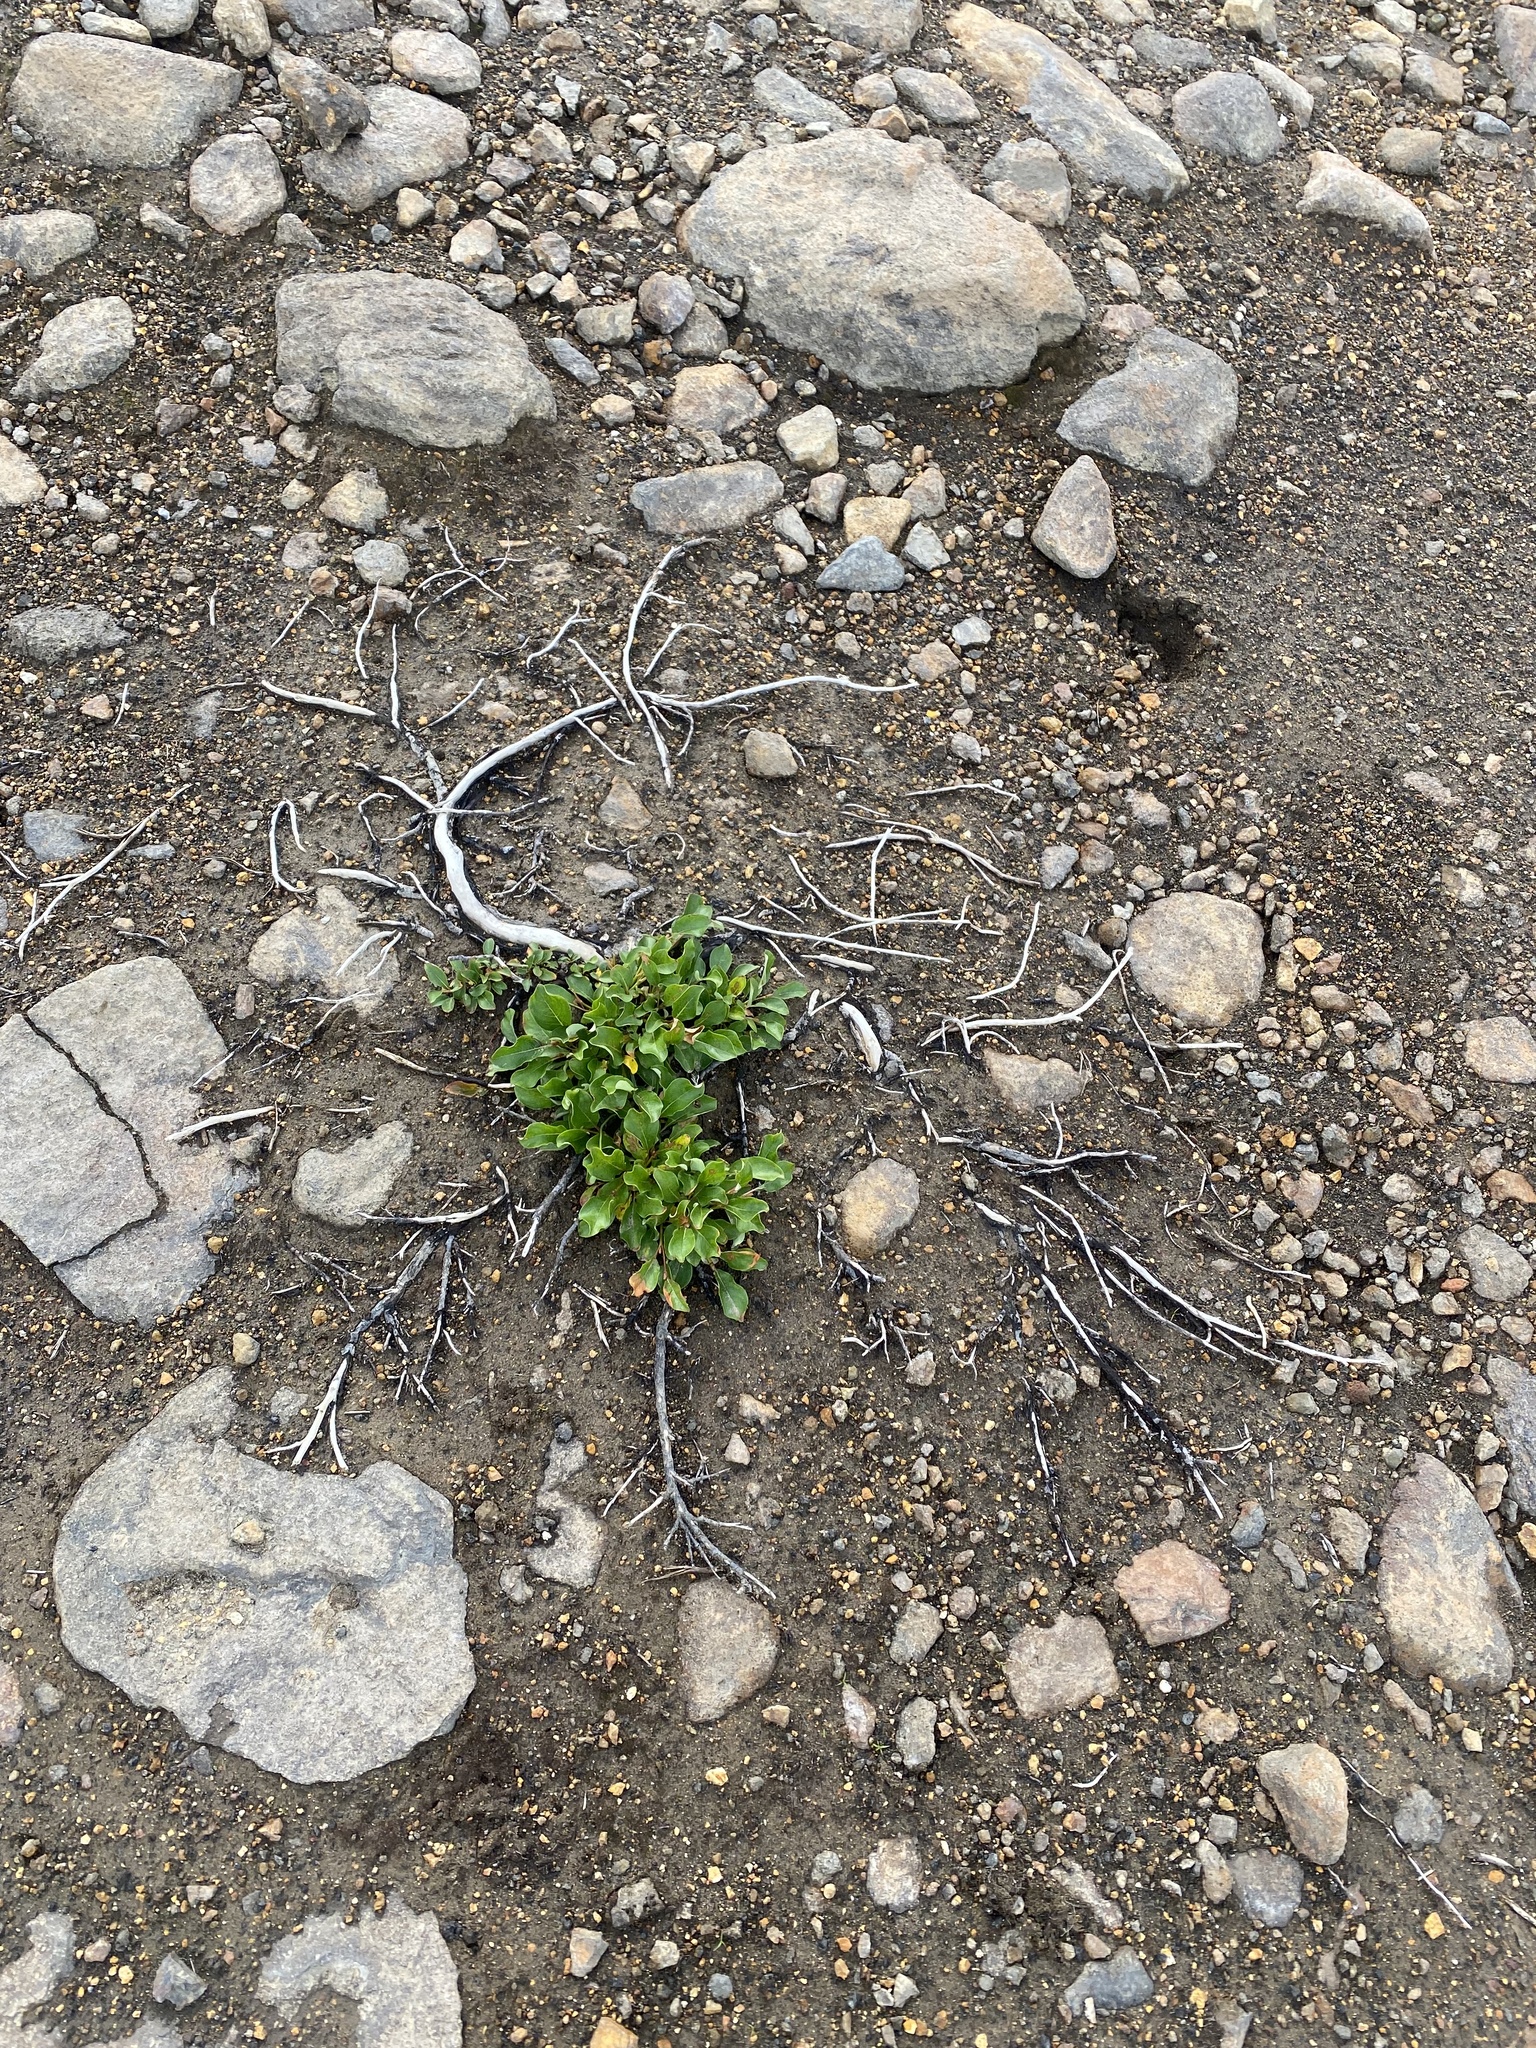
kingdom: Plantae
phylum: Tracheophyta
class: Magnoliopsida
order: Malpighiales
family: Salicaceae
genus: Salix
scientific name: Salix arctica
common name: Arctic willow
